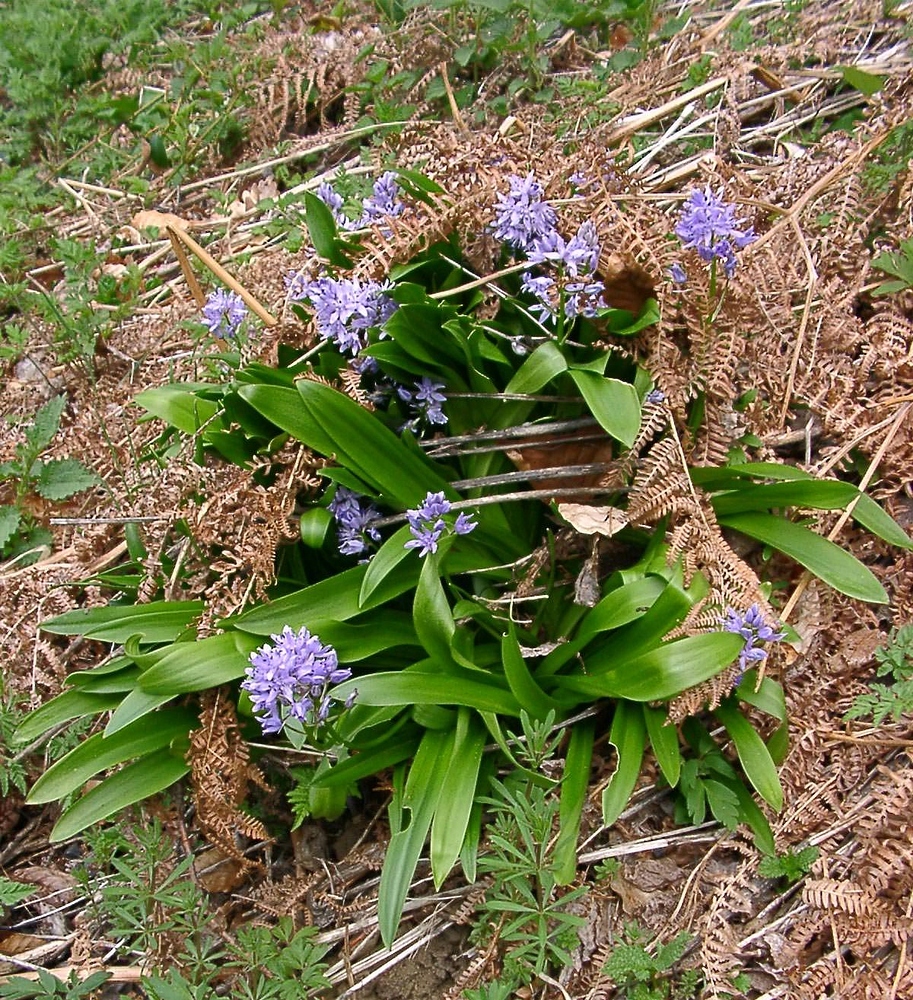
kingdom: Plantae
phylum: Tracheophyta
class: Liliopsida
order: Asparagales
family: Asparagaceae
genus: Scilla
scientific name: Scilla lilio-hyacinthus
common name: Pyrenean squill
